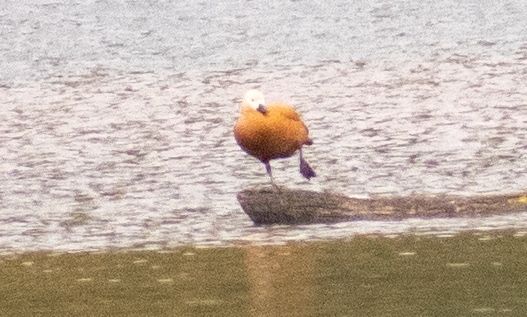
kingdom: Animalia
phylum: Chordata
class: Aves
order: Anseriformes
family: Anatidae
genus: Tadorna
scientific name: Tadorna ferruginea
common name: Ruddy shelduck
